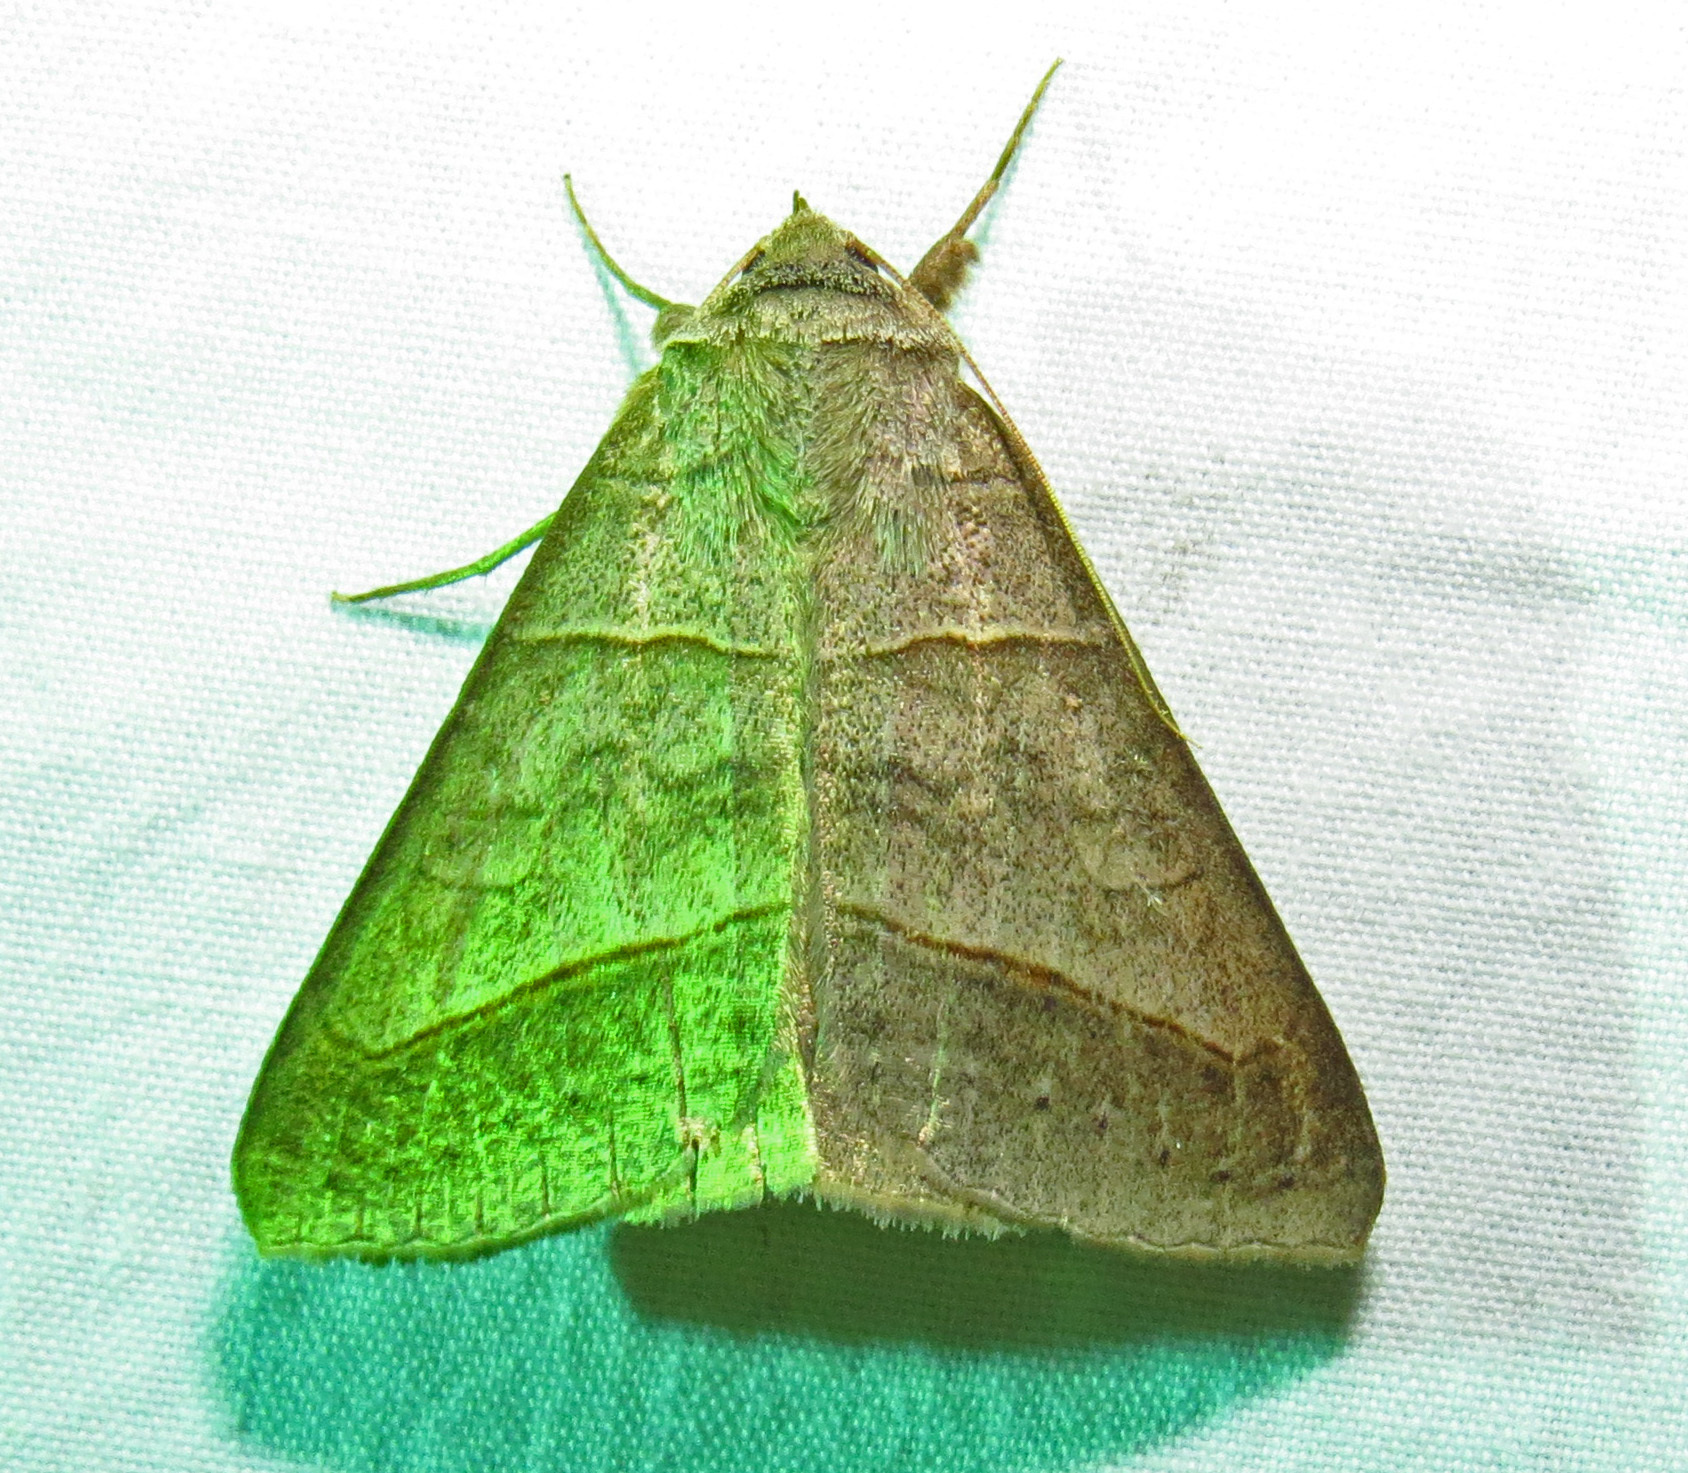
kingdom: Animalia
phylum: Arthropoda
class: Insecta
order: Lepidoptera
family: Erebidae
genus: Mocis
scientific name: Mocis texana
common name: Texas mocis moth
